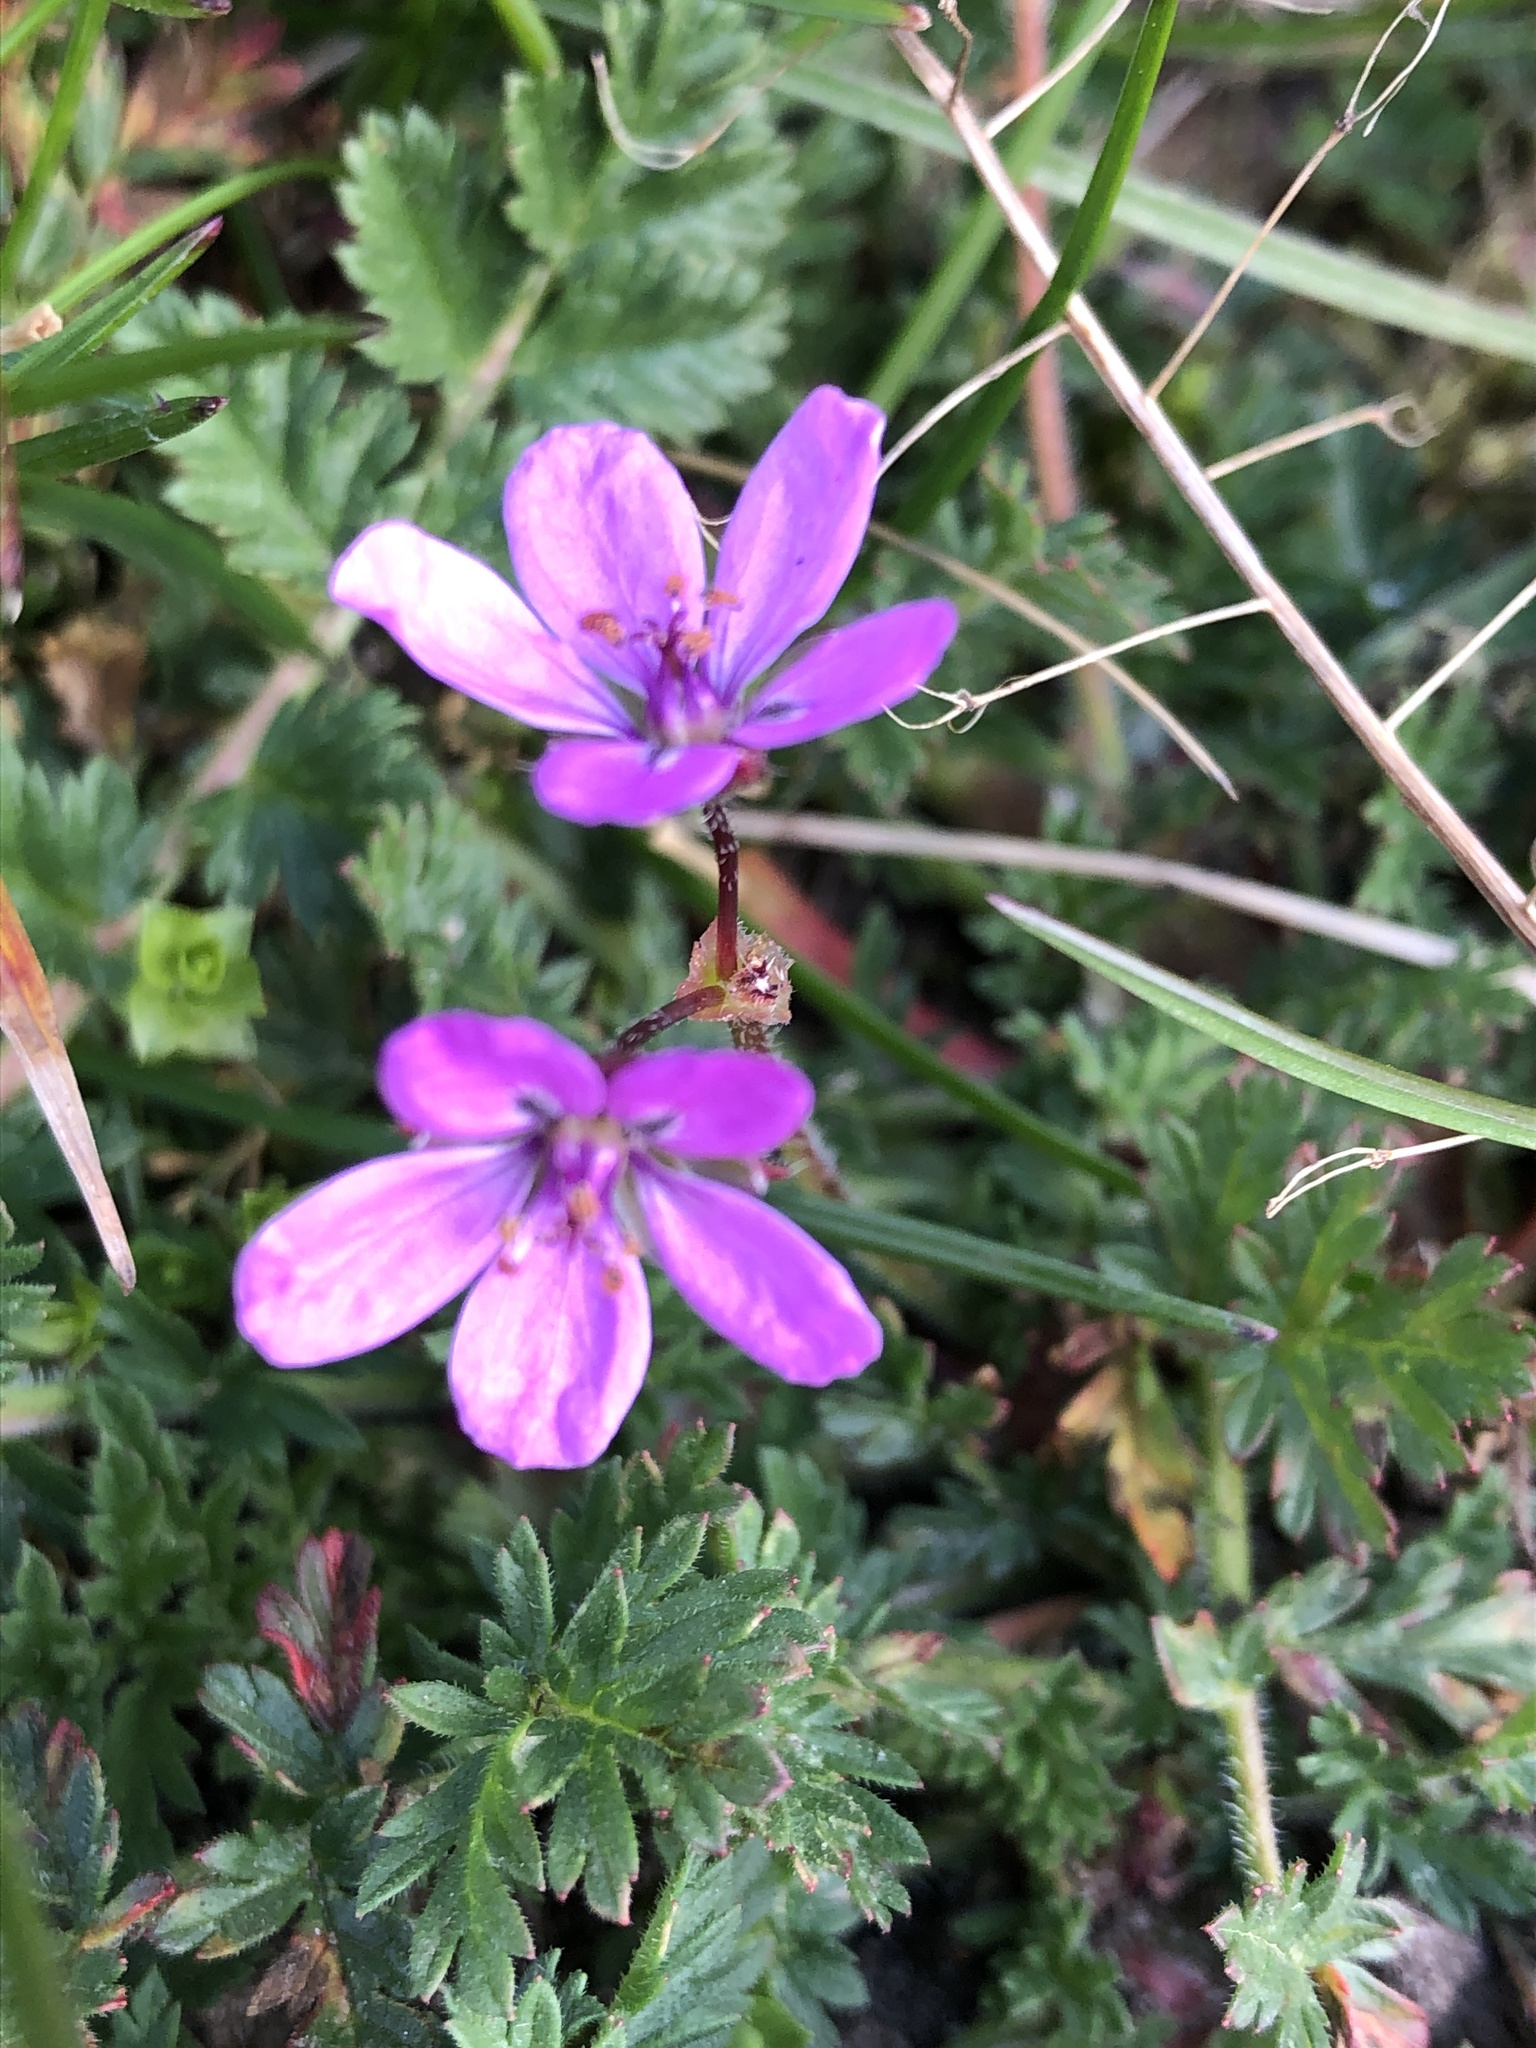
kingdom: Plantae
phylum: Tracheophyta
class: Magnoliopsida
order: Geraniales
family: Geraniaceae
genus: Erodium
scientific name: Erodium cicutarium
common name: Common stork's-bill
